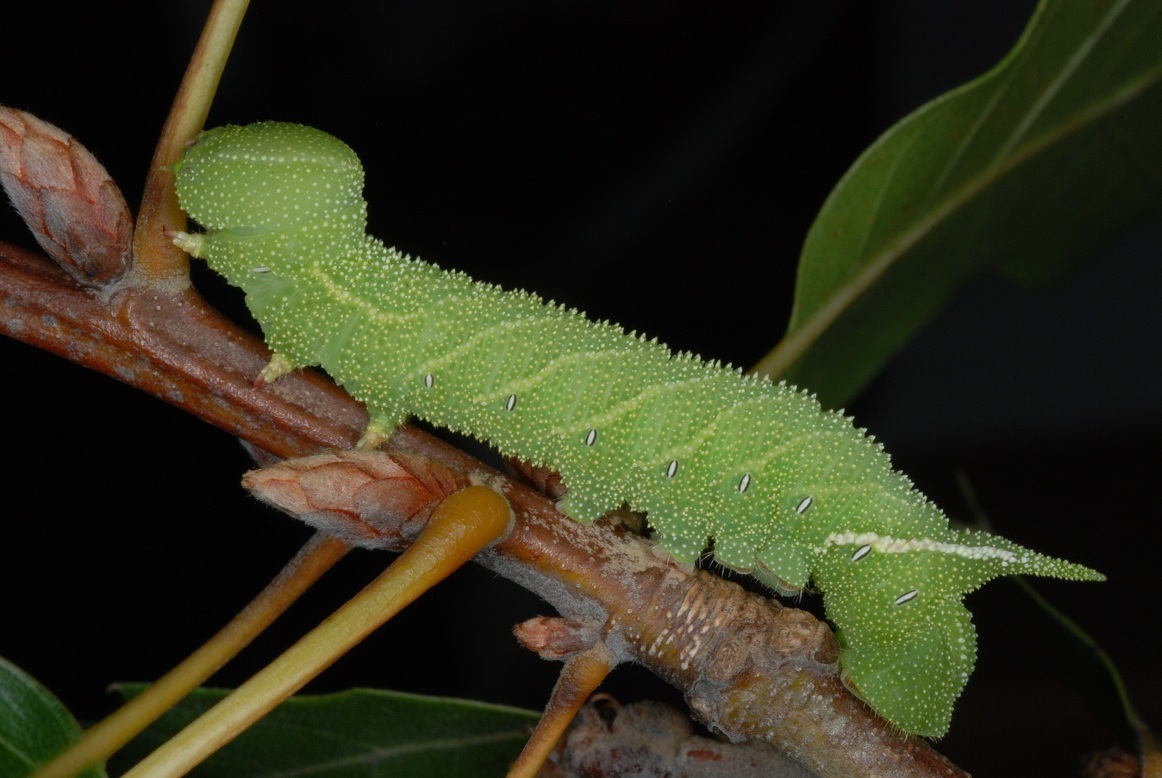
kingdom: Animalia
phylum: Arthropoda
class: Insecta
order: Lepidoptera
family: Sphingidae
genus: Paonias
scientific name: Paonias excaecata
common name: Blind-eyed sphinx
